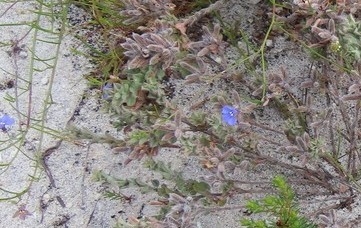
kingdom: Plantae
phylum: Tracheophyta
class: Magnoliopsida
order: Asterales
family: Campanulaceae
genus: Lobelia
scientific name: Lobelia setacea
